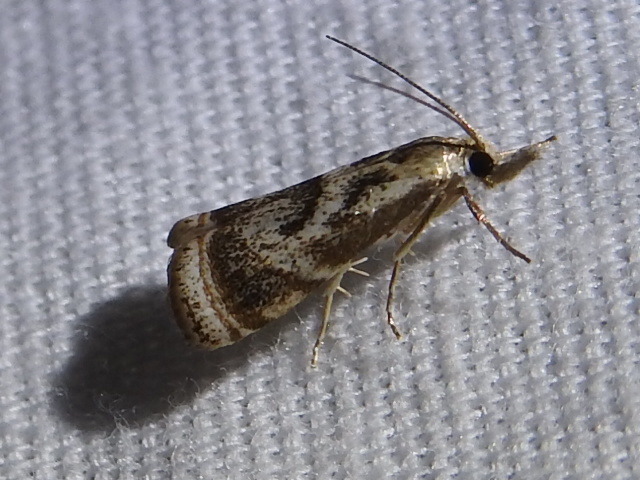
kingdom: Animalia
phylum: Arthropoda
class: Insecta
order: Lepidoptera
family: Crambidae
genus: Microcrambus
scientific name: Microcrambus elegans
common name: Elegant grass-veneer
